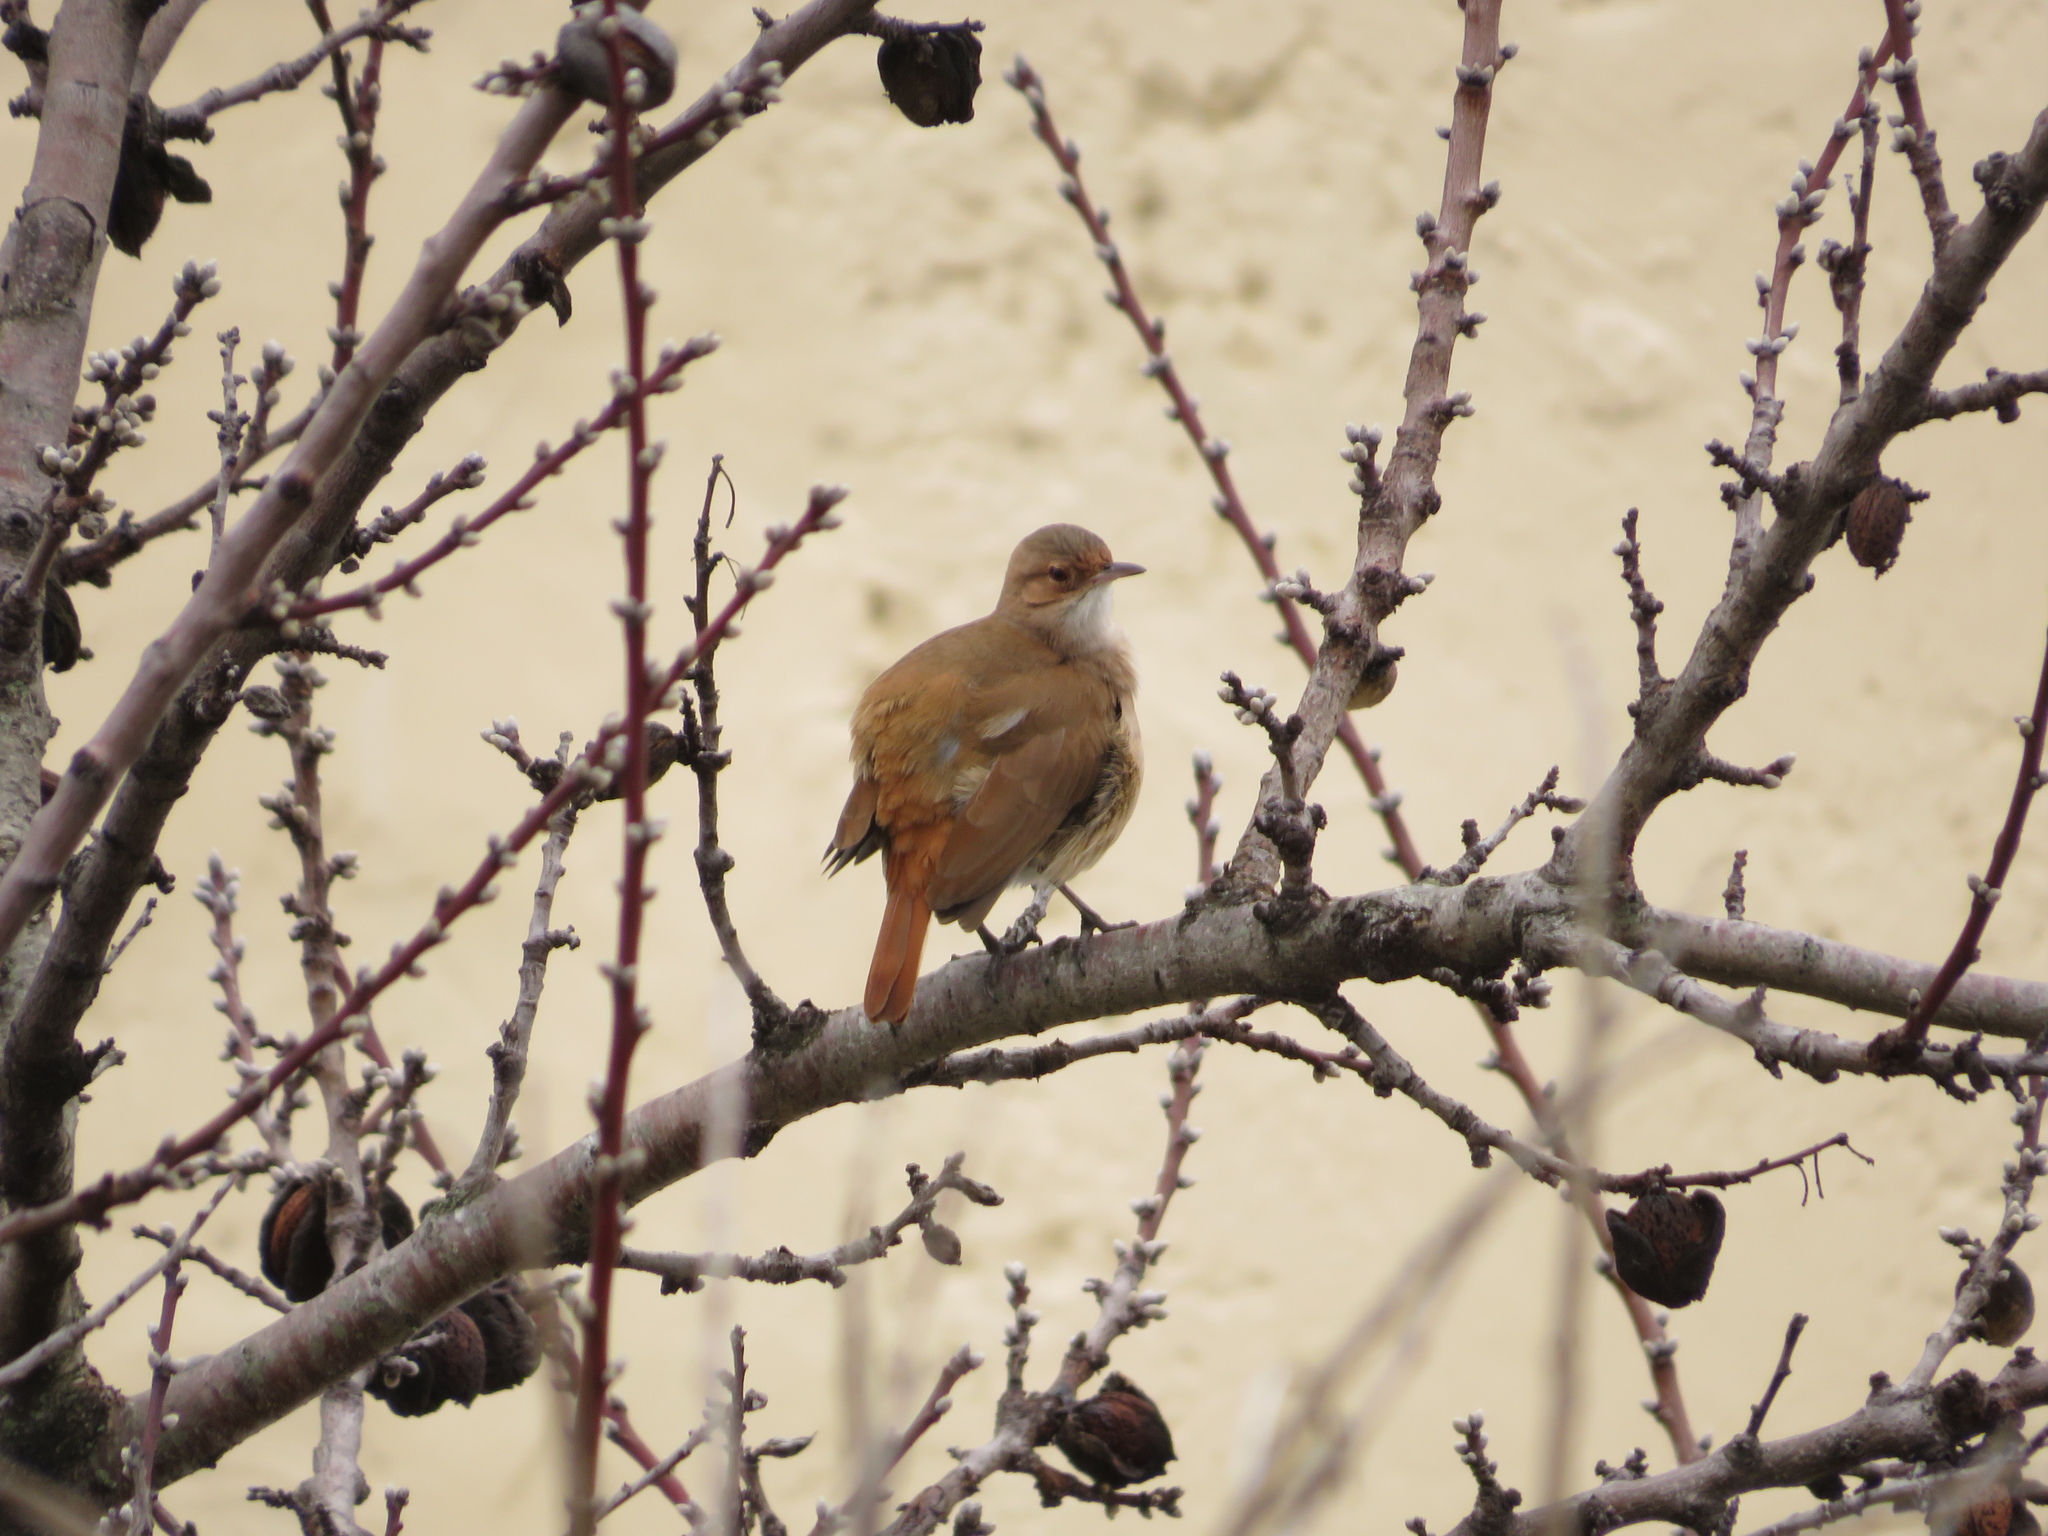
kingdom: Animalia
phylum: Chordata
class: Aves
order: Passeriformes
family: Furnariidae
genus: Furnarius
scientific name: Furnarius rufus
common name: Rufous hornero
